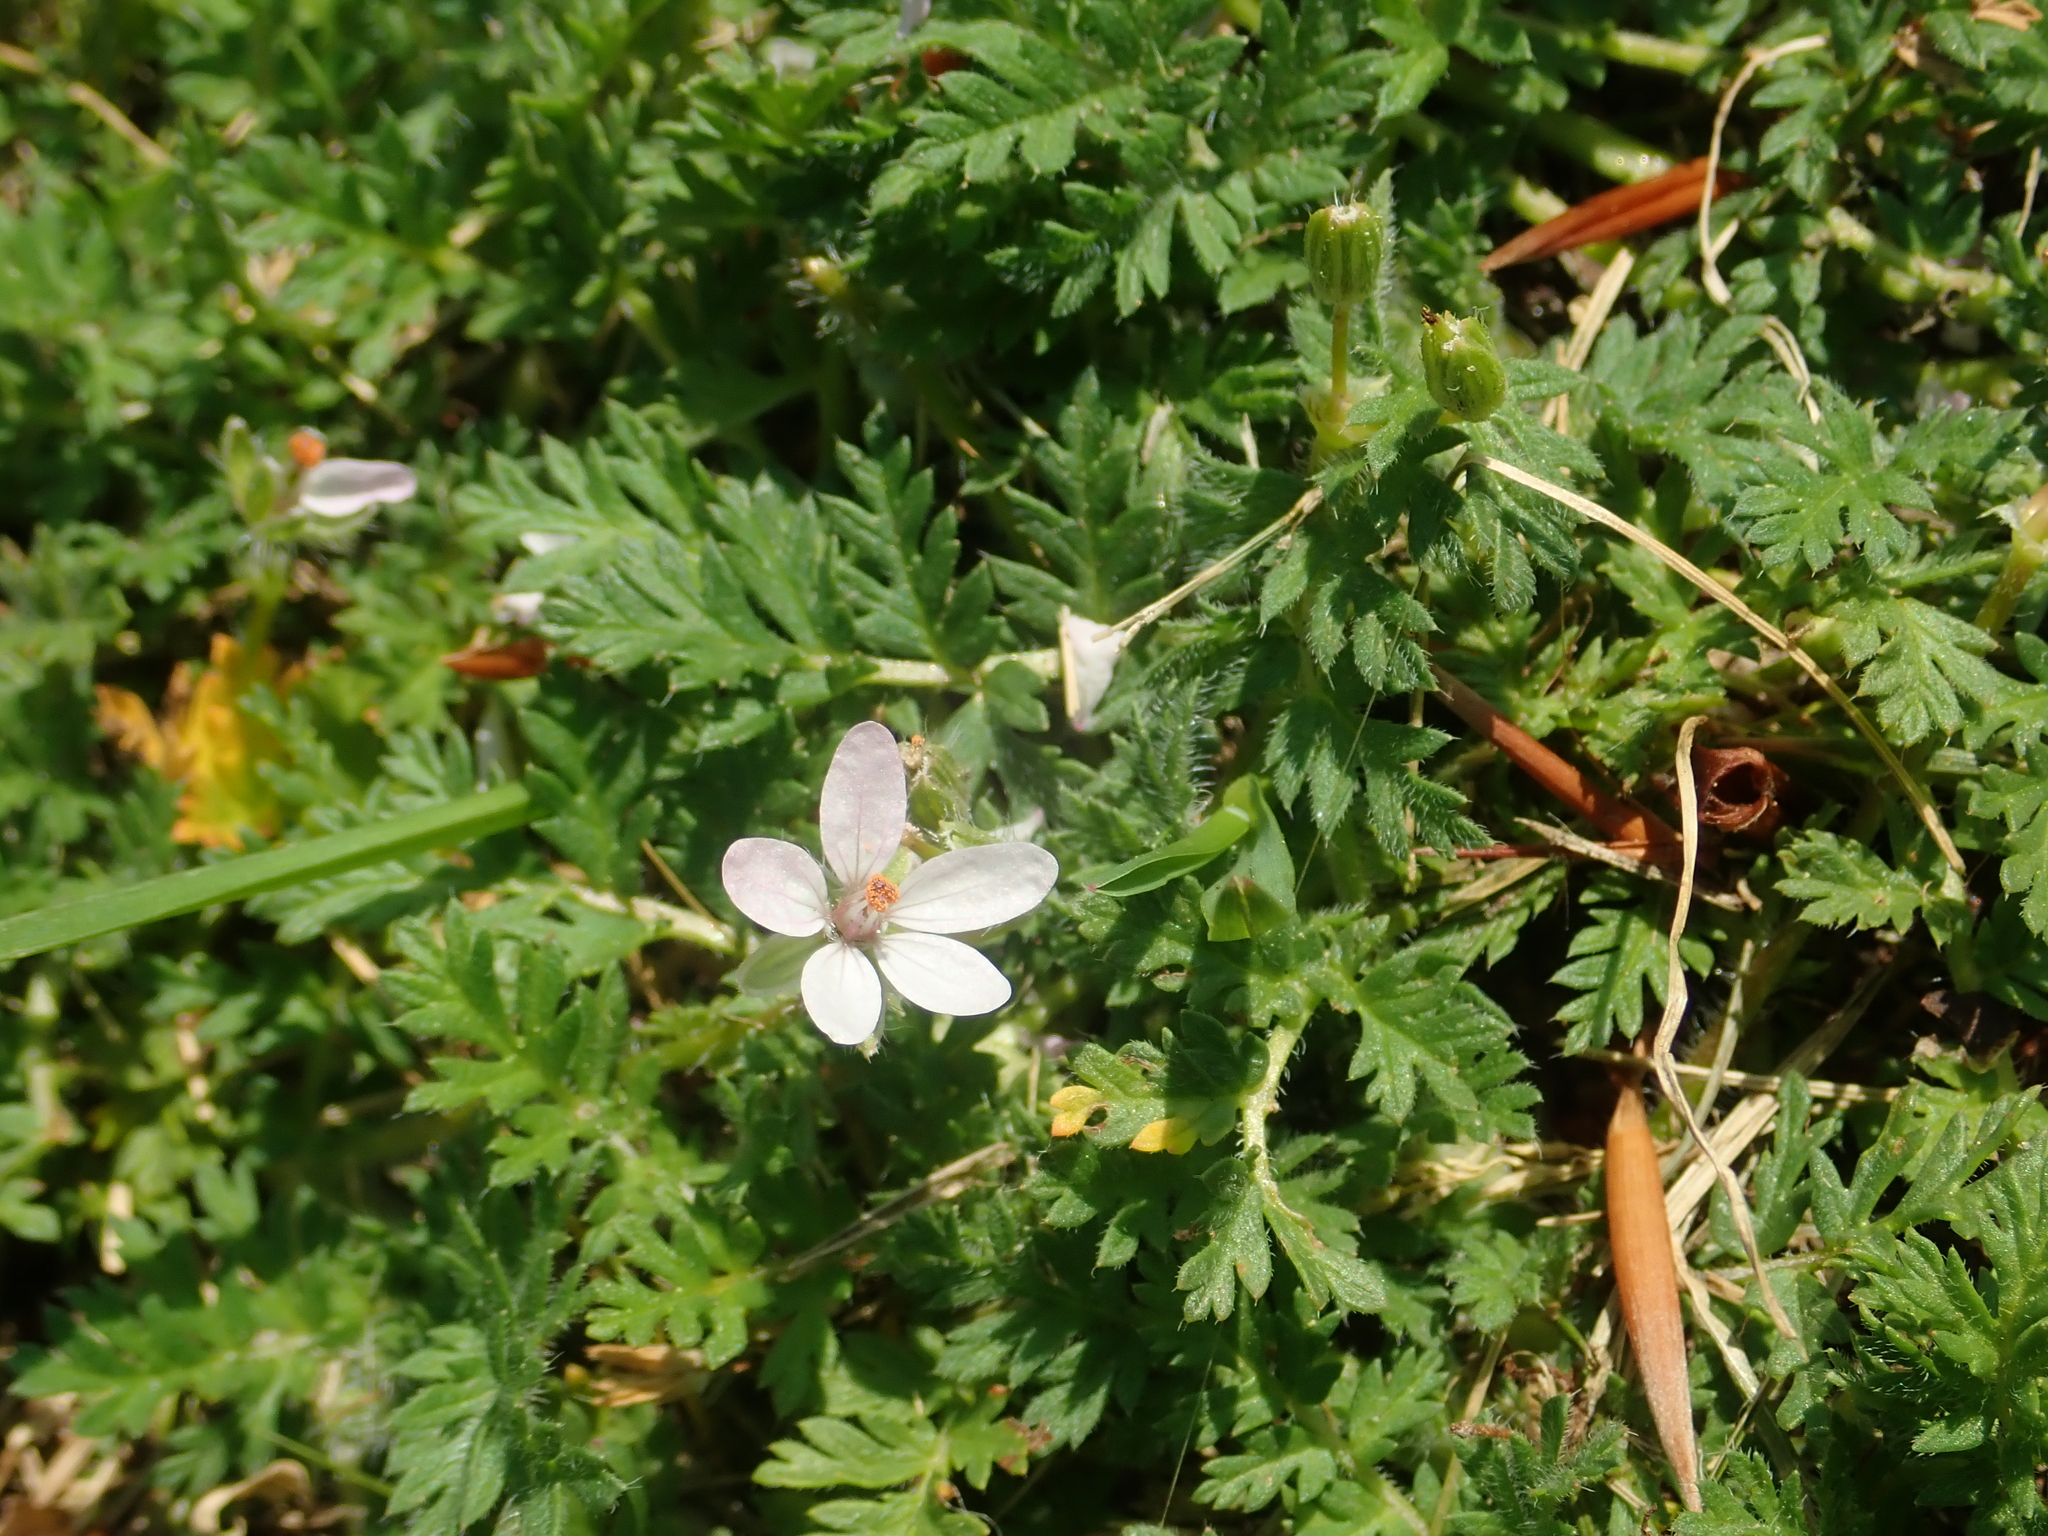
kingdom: Plantae
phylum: Tracheophyta
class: Magnoliopsida
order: Geraniales
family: Geraniaceae
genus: Erodium
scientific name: Erodium cicutarium
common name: Common stork's-bill
